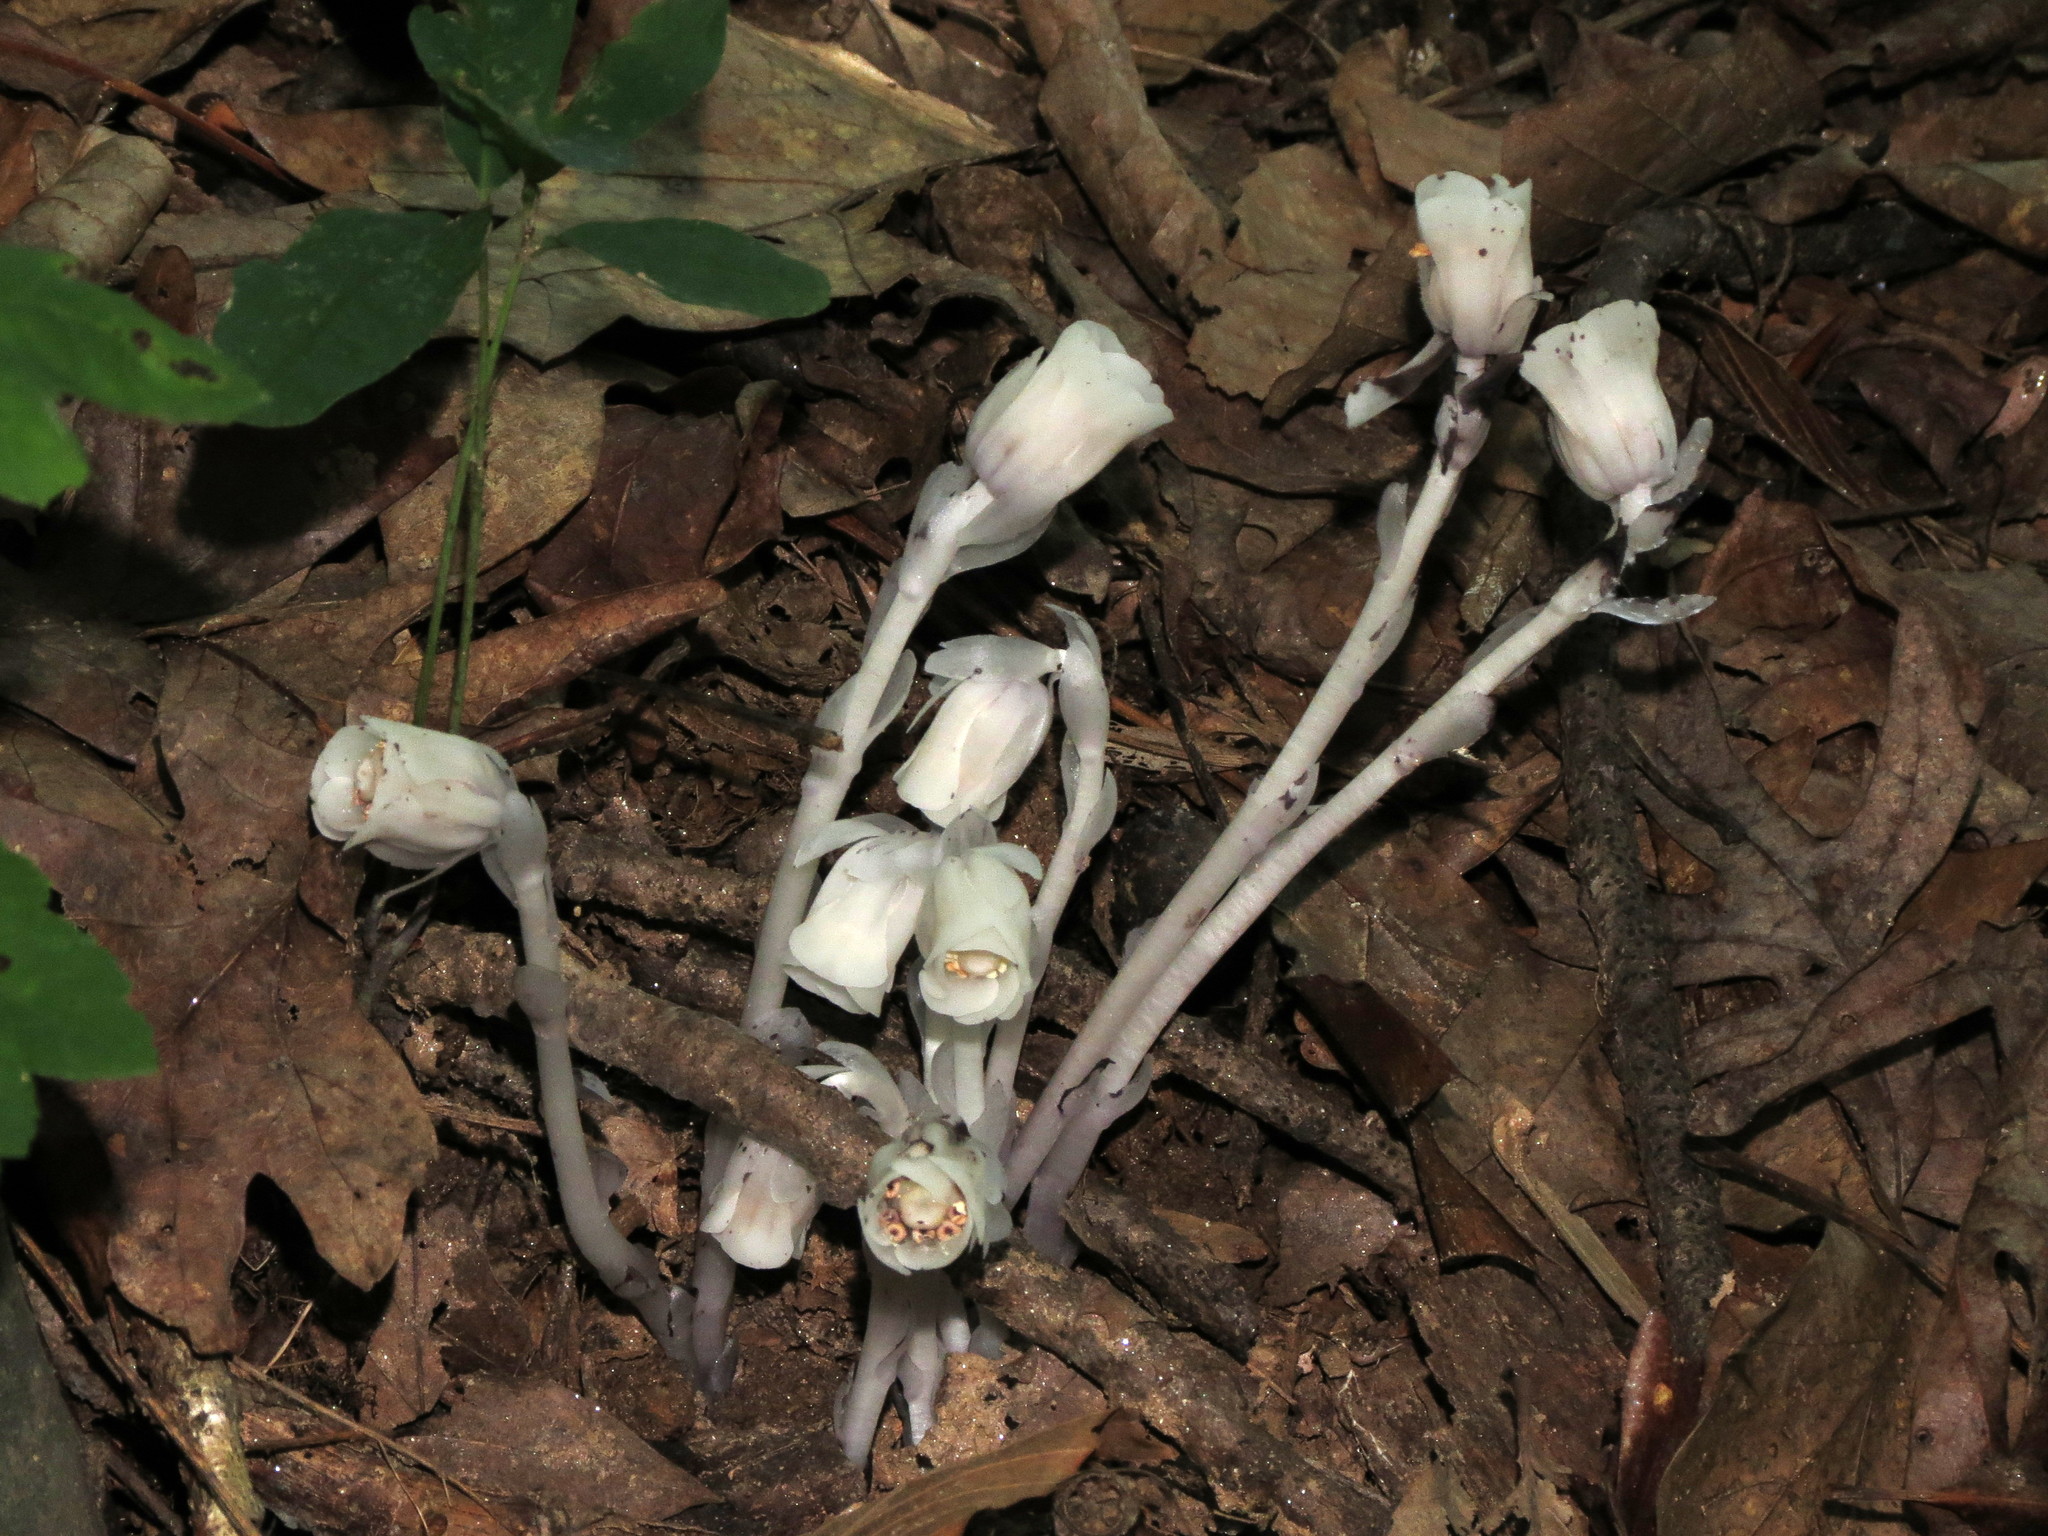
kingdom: Plantae
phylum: Tracheophyta
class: Magnoliopsida
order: Ericales
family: Ericaceae
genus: Monotropa
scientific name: Monotropa uniflora
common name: Convulsion root
